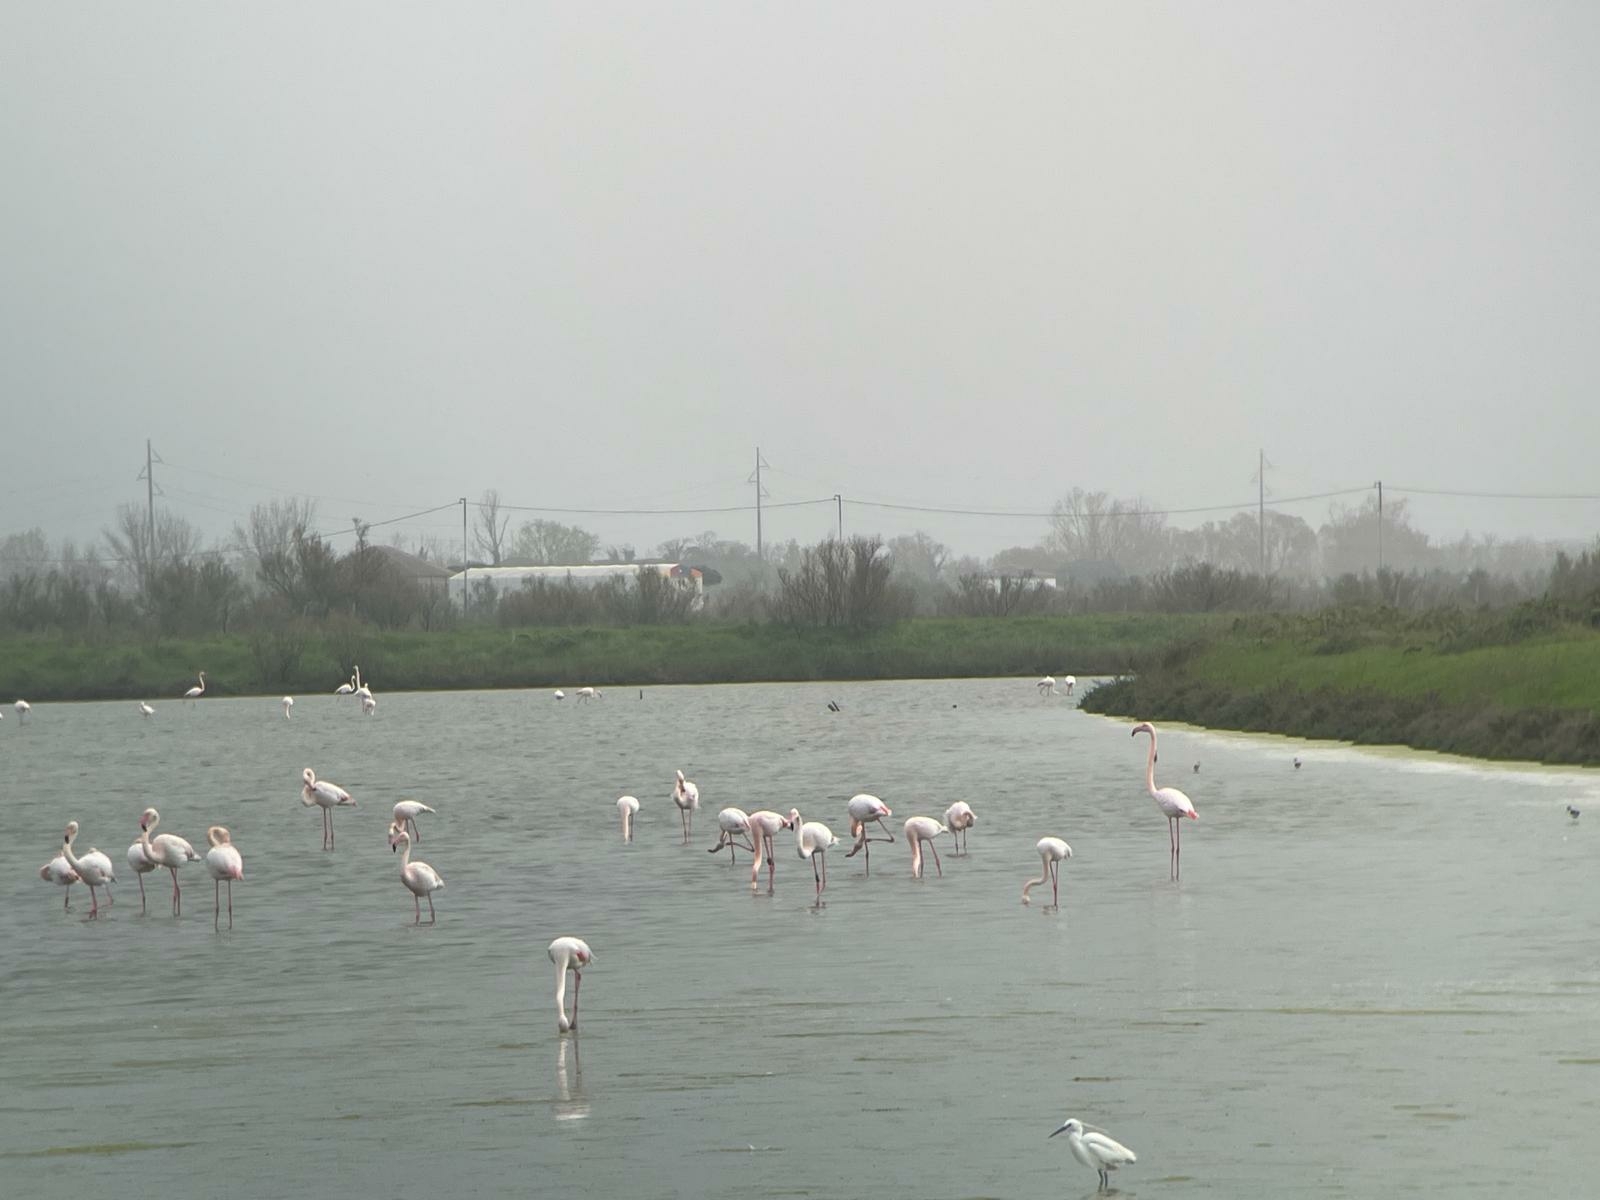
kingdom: Animalia
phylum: Chordata
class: Aves
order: Phoenicopteriformes
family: Phoenicopteridae
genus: Phoenicopterus
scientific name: Phoenicopterus roseus
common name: Greater flamingo
